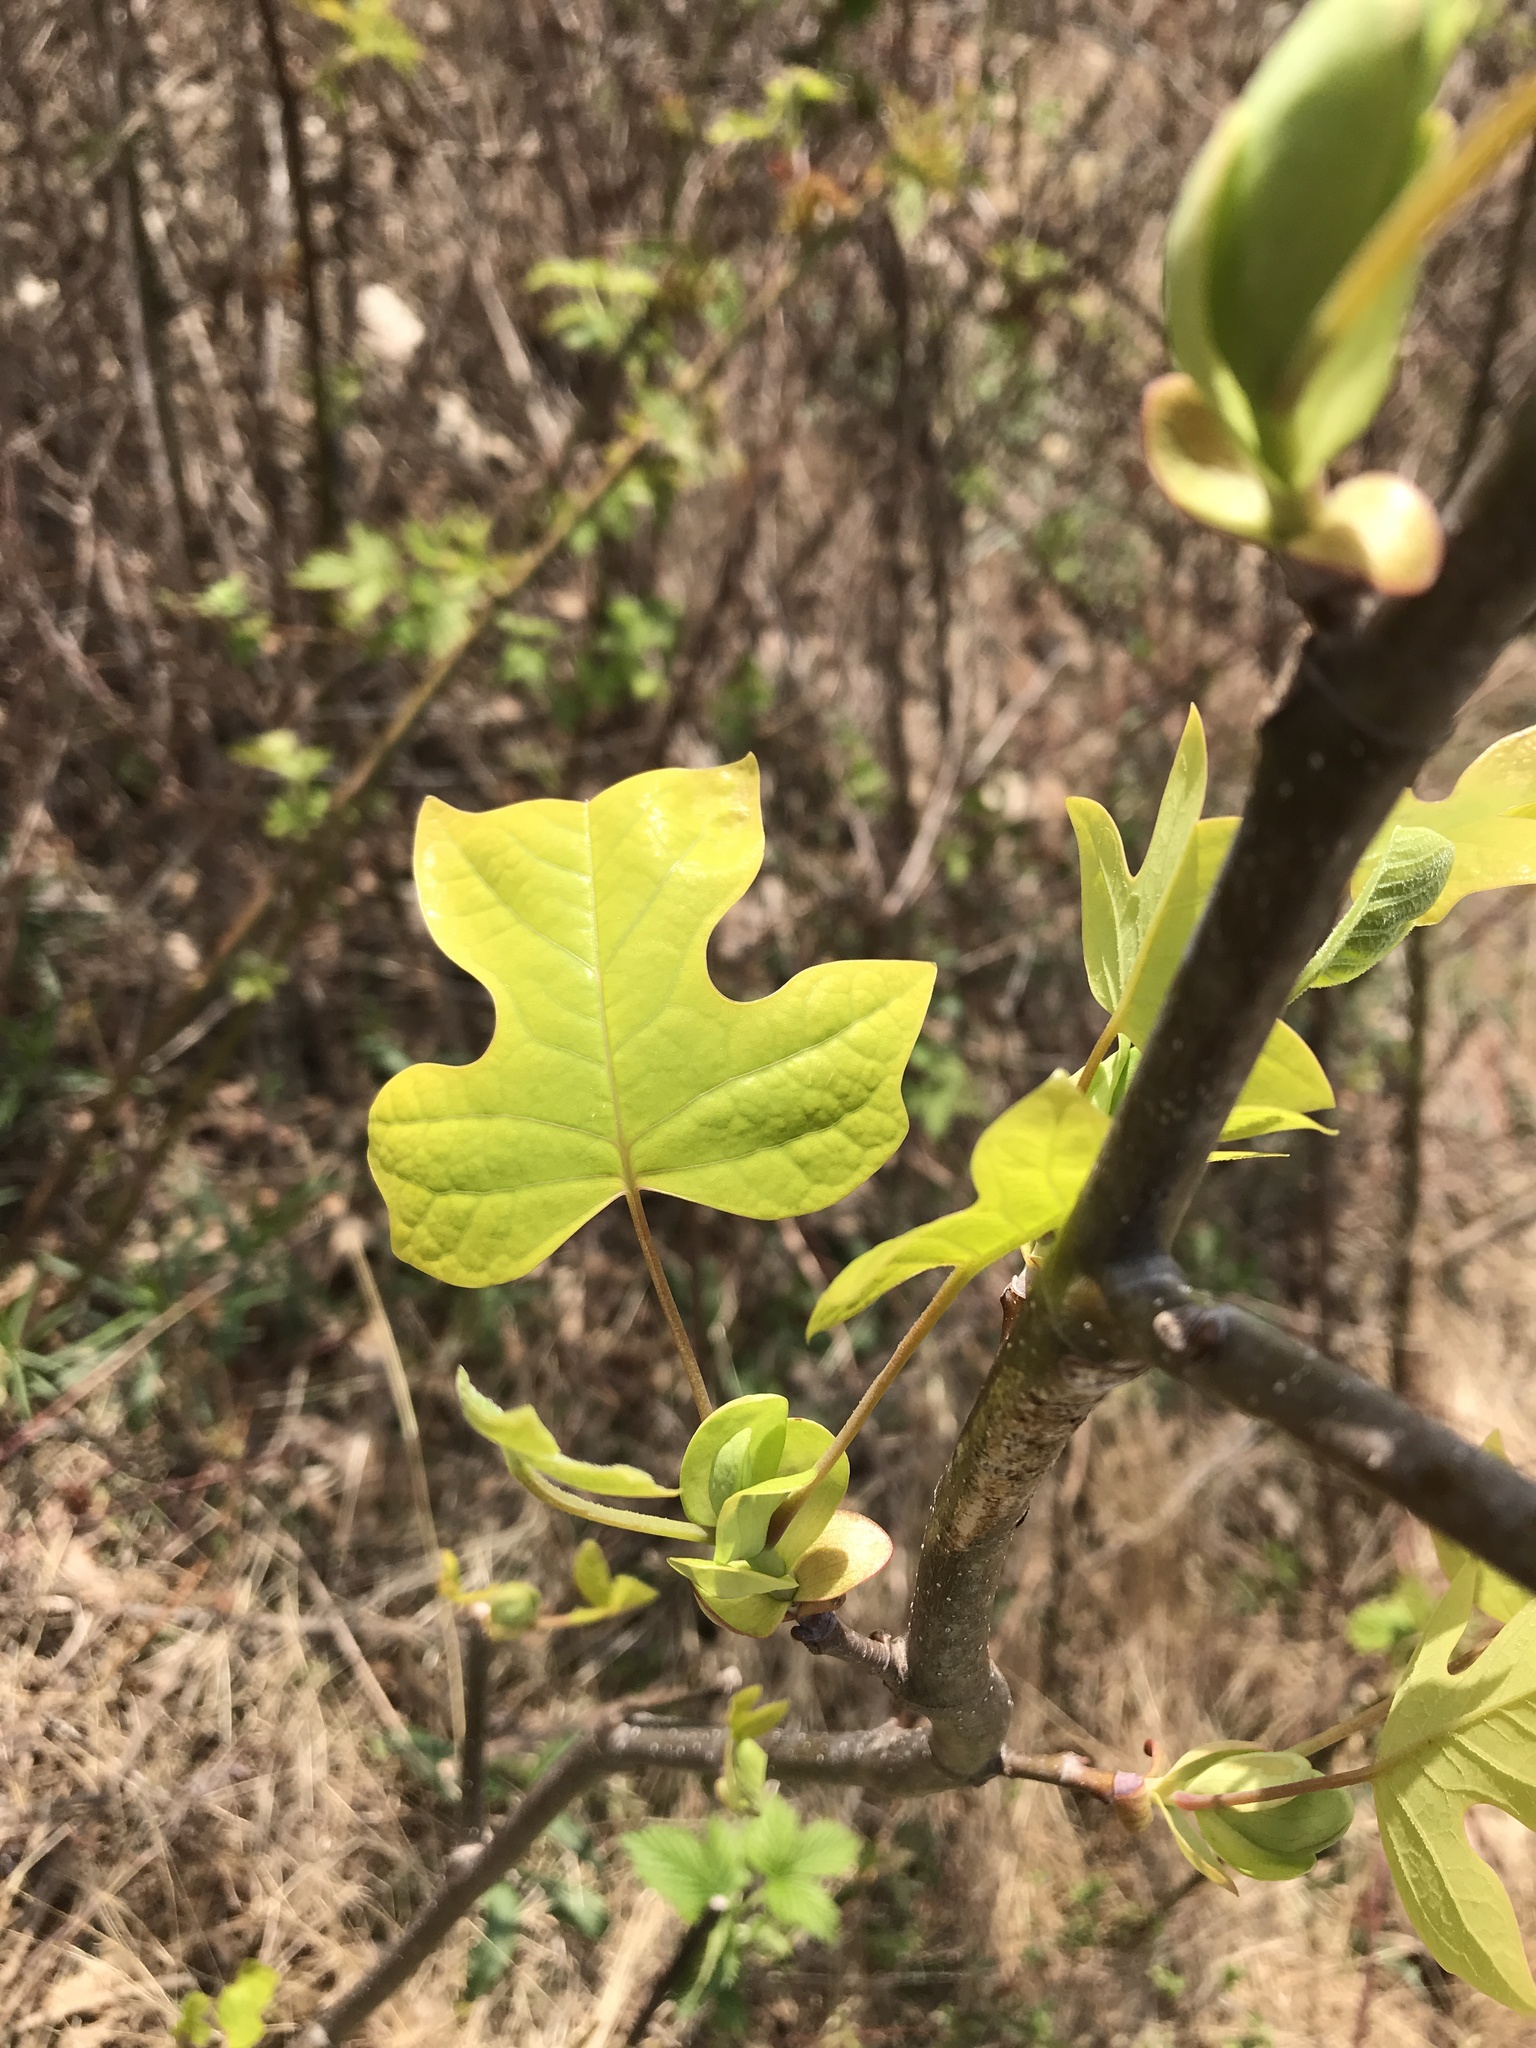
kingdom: Plantae
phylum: Tracheophyta
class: Magnoliopsida
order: Magnoliales
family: Magnoliaceae
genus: Liriodendron
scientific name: Liriodendron tulipifera
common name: Tulip tree
